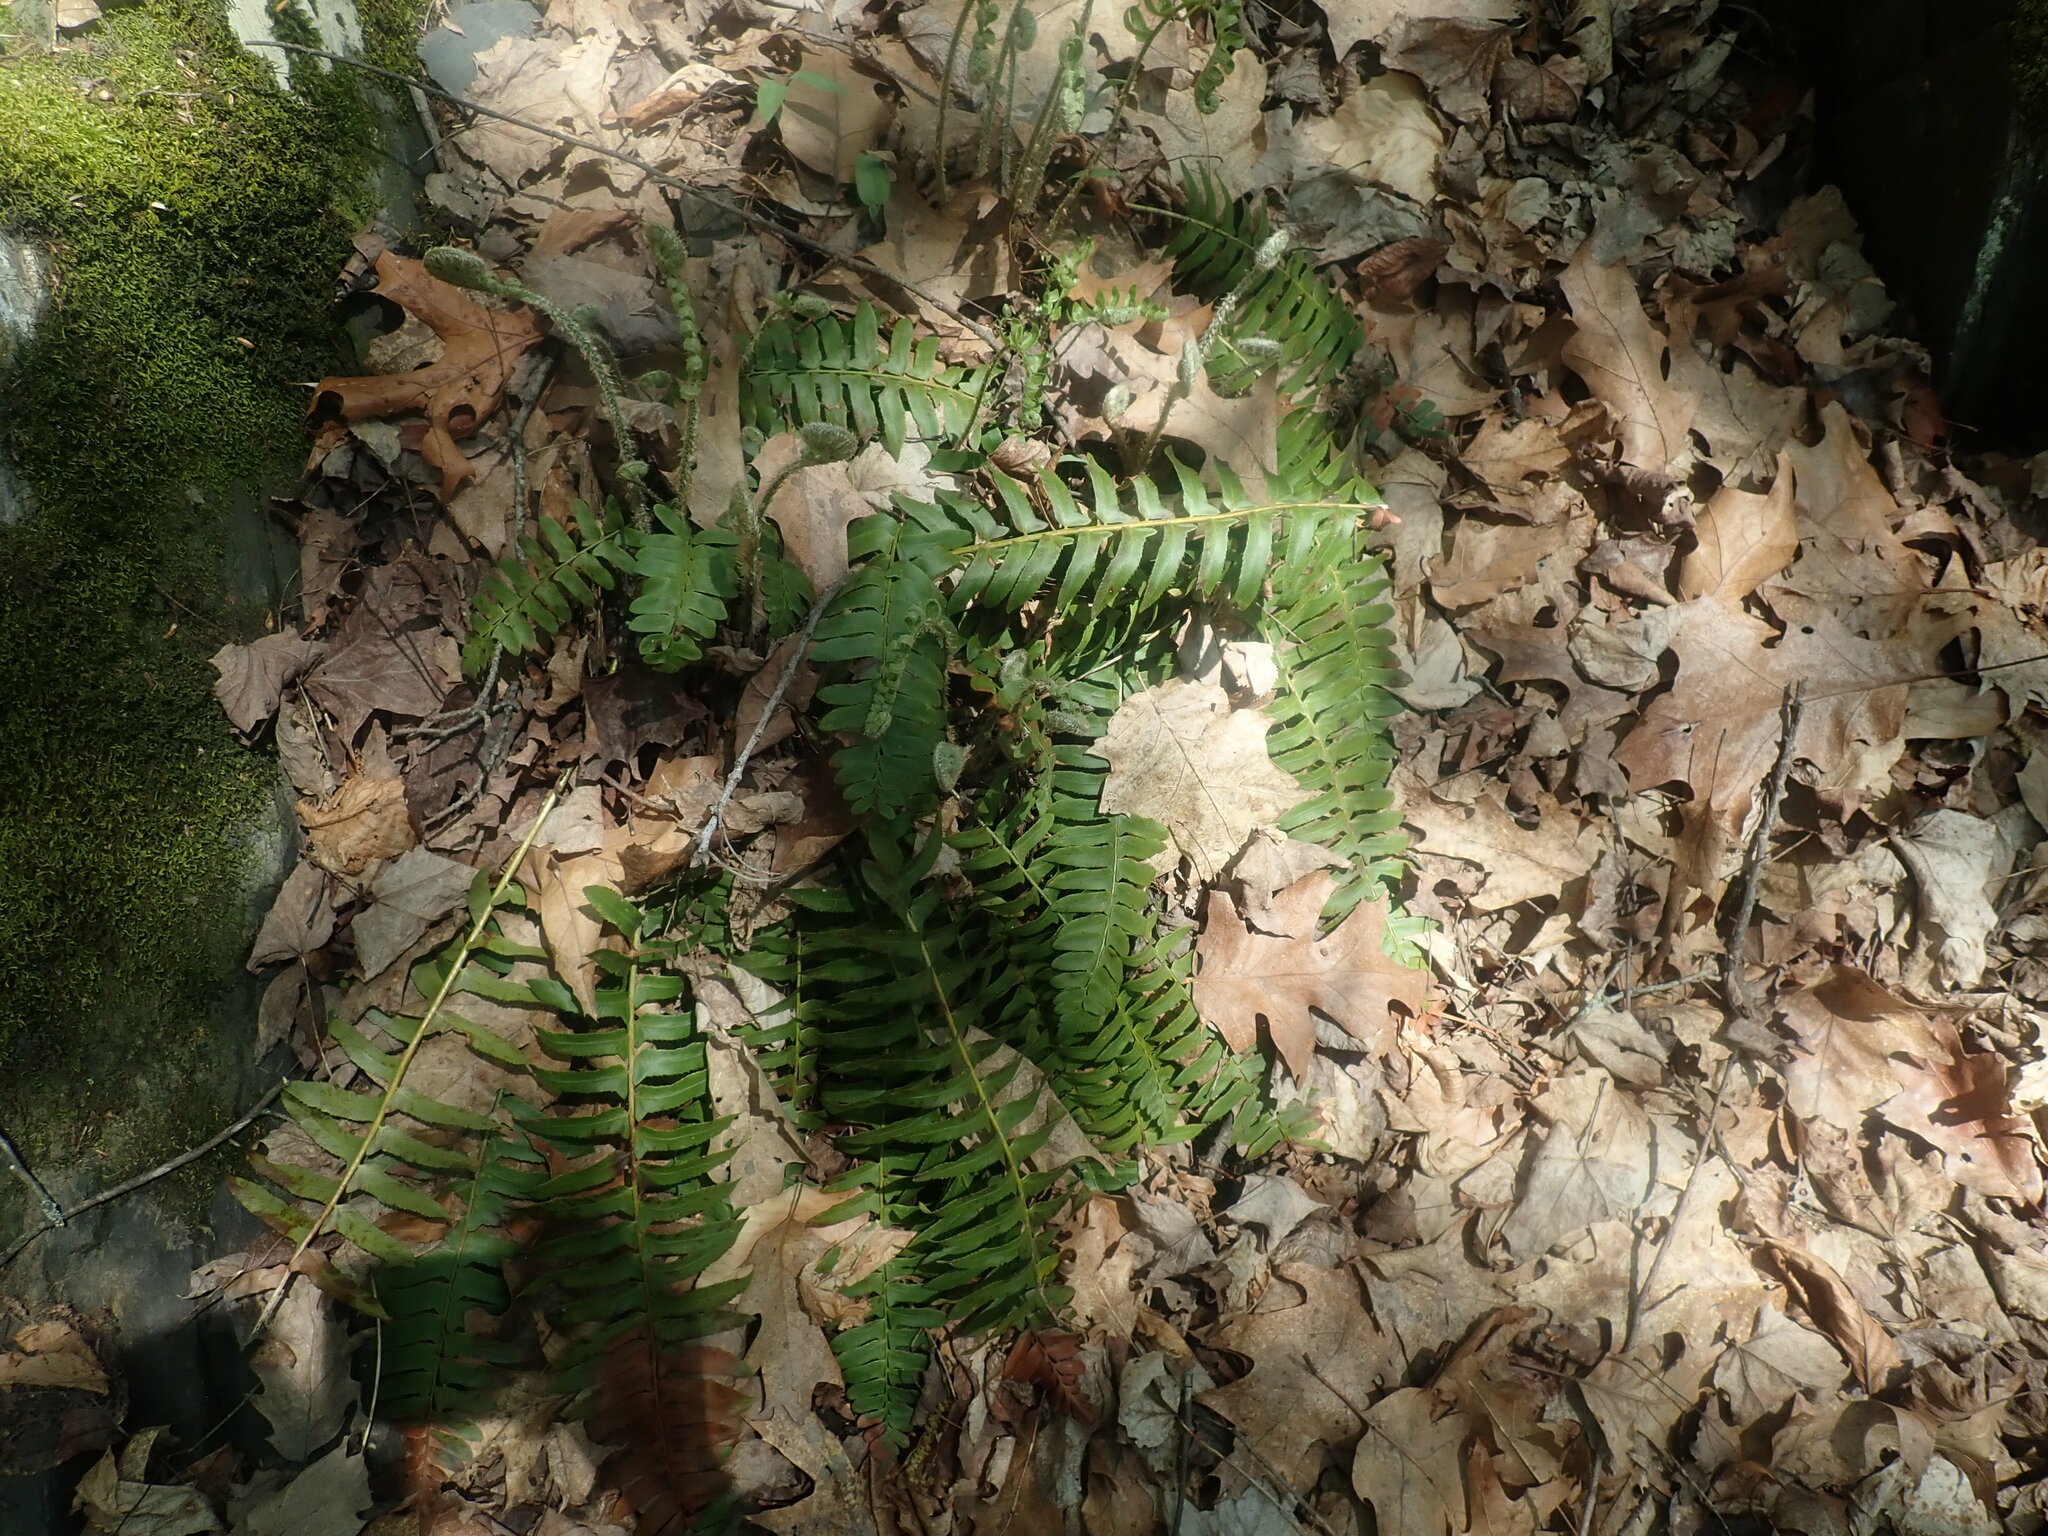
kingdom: Plantae
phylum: Tracheophyta
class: Polypodiopsida
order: Polypodiales
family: Dryopteridaceae
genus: Polystichum
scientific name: Polystichum acrostichoides
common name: Christmas fern
